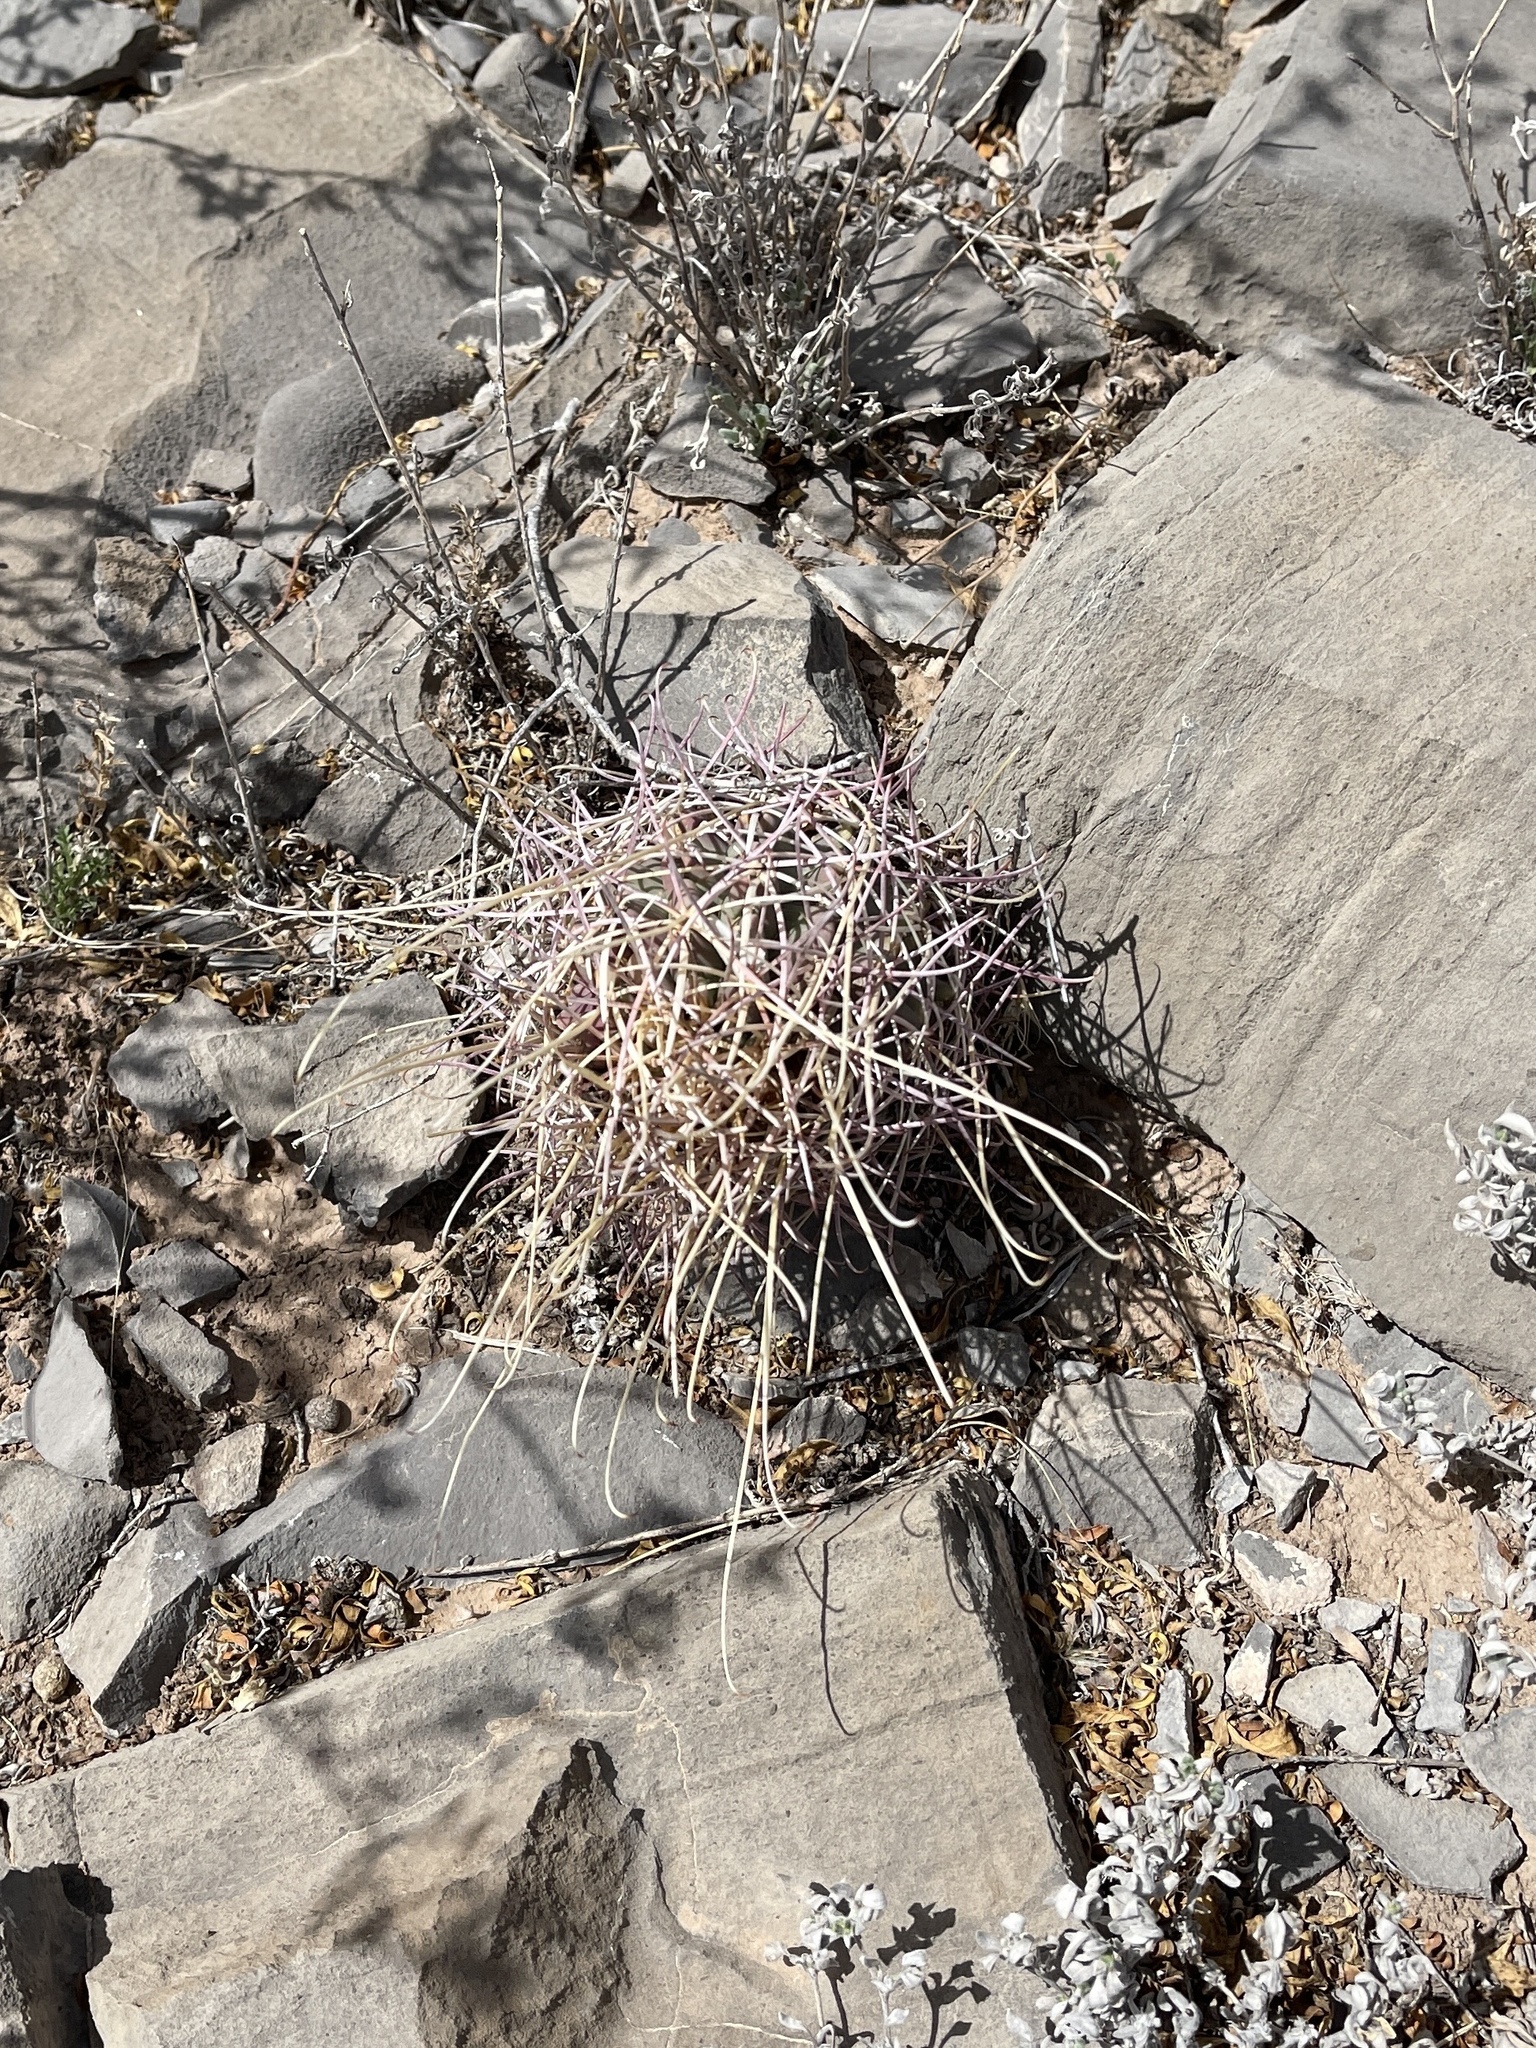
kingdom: Plantae
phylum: Tracheophyta
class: Magnoliopsida
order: Caryophyllales
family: Cactaceae
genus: Ferocactus
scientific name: Ferocactus uncinatus
